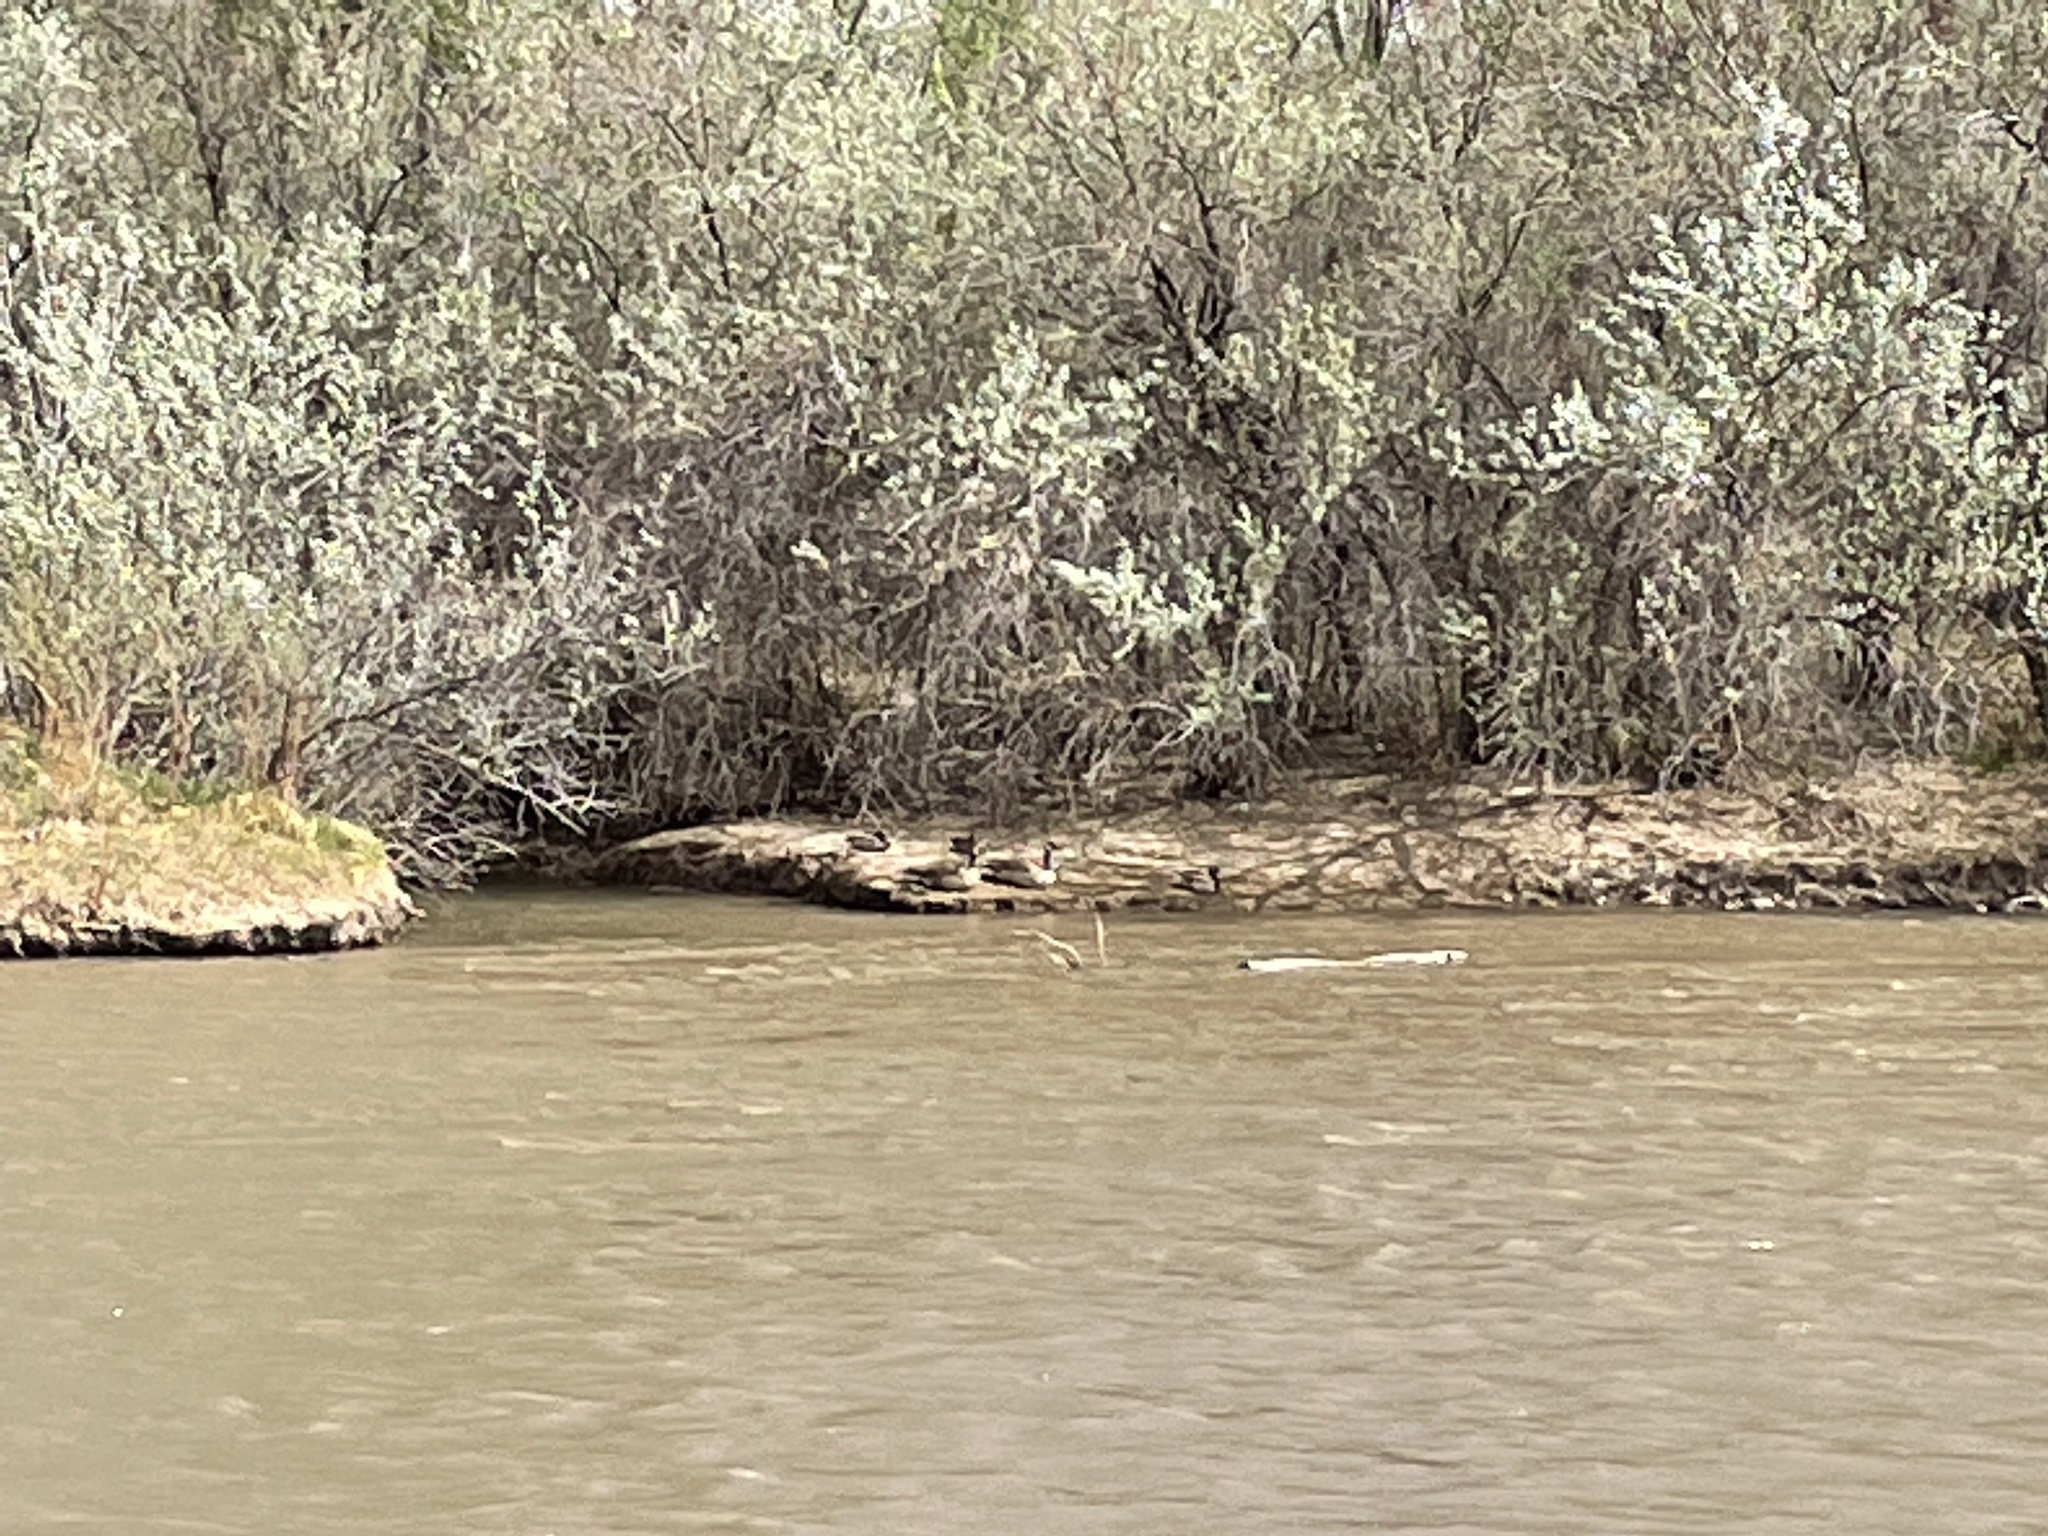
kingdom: Animalia
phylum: Chordata
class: Aves
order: Anseriformes
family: Anatidae
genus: Branta
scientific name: Branta canadensis
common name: Canada goose
